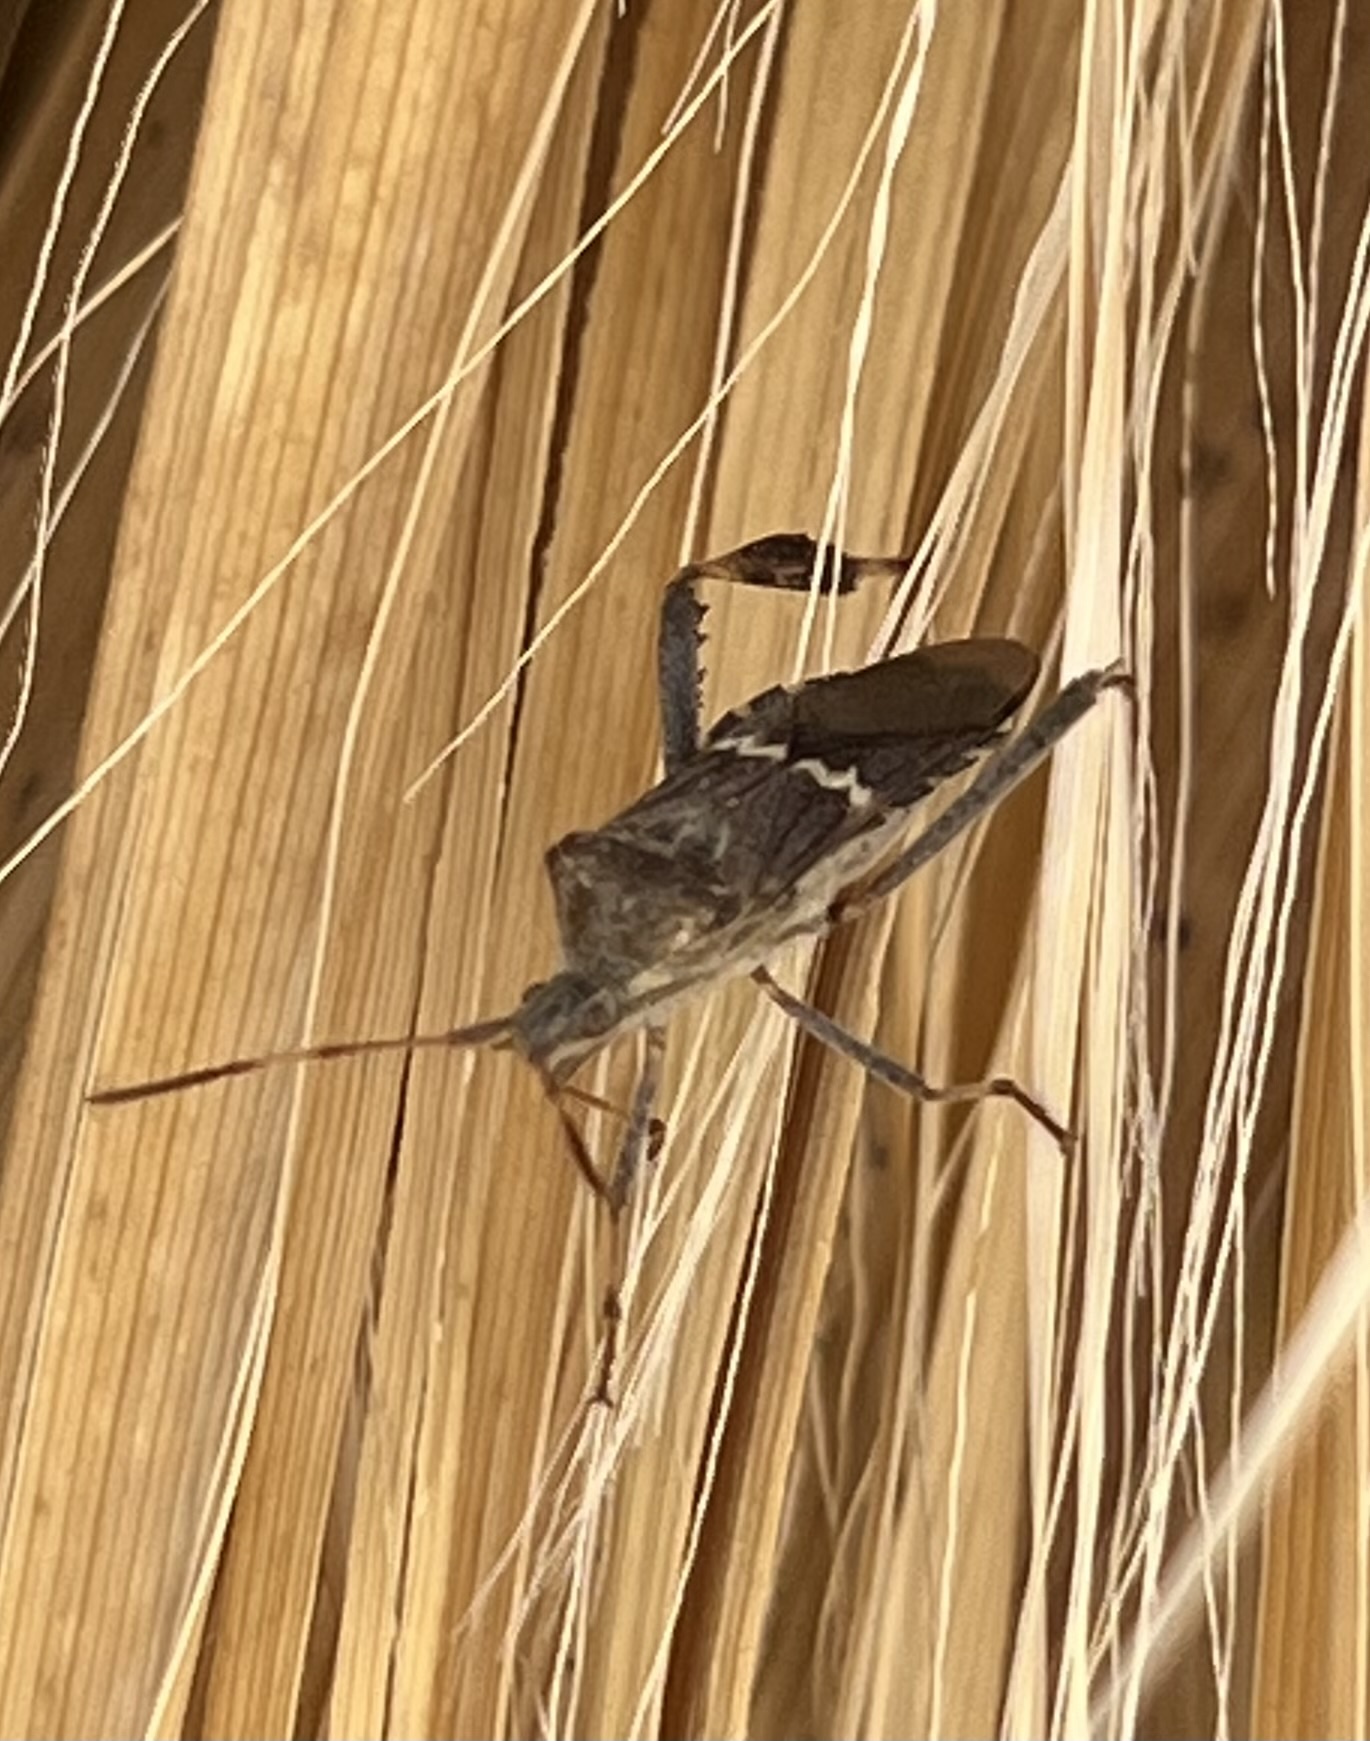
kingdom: Animalia
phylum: Arthropoda
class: Insecta
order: Hemiptera
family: Coreidae
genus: Leptoglossus
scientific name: Leptoglossus clypealis
